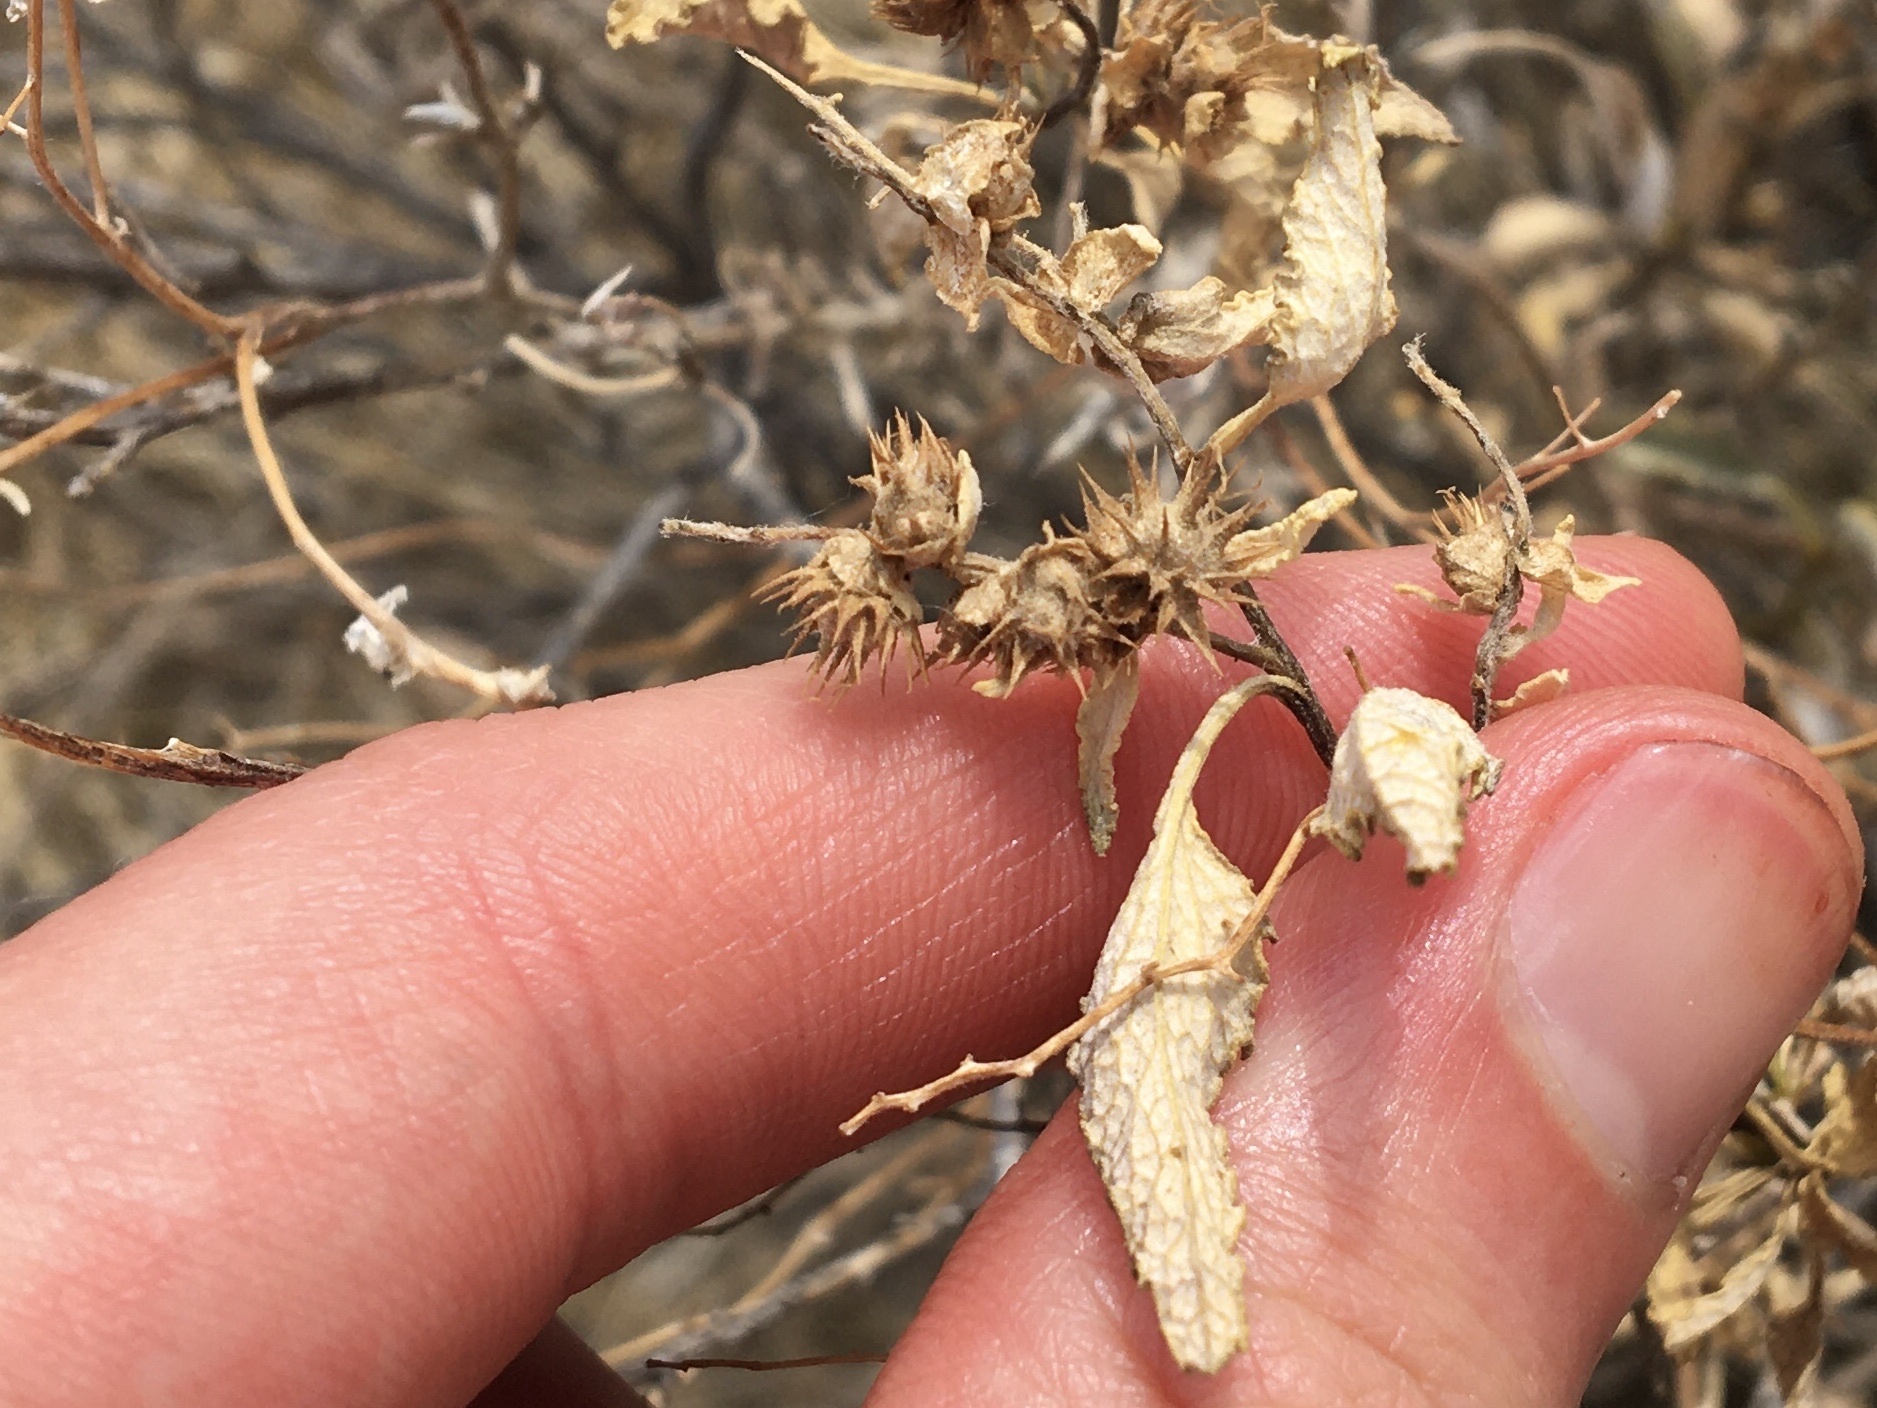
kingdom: Plantae
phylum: Tracheophyta
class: Magnoliopsida
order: Asterales
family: Asteraceae
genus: Ambrosia
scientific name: Ambrosia deltoidea
